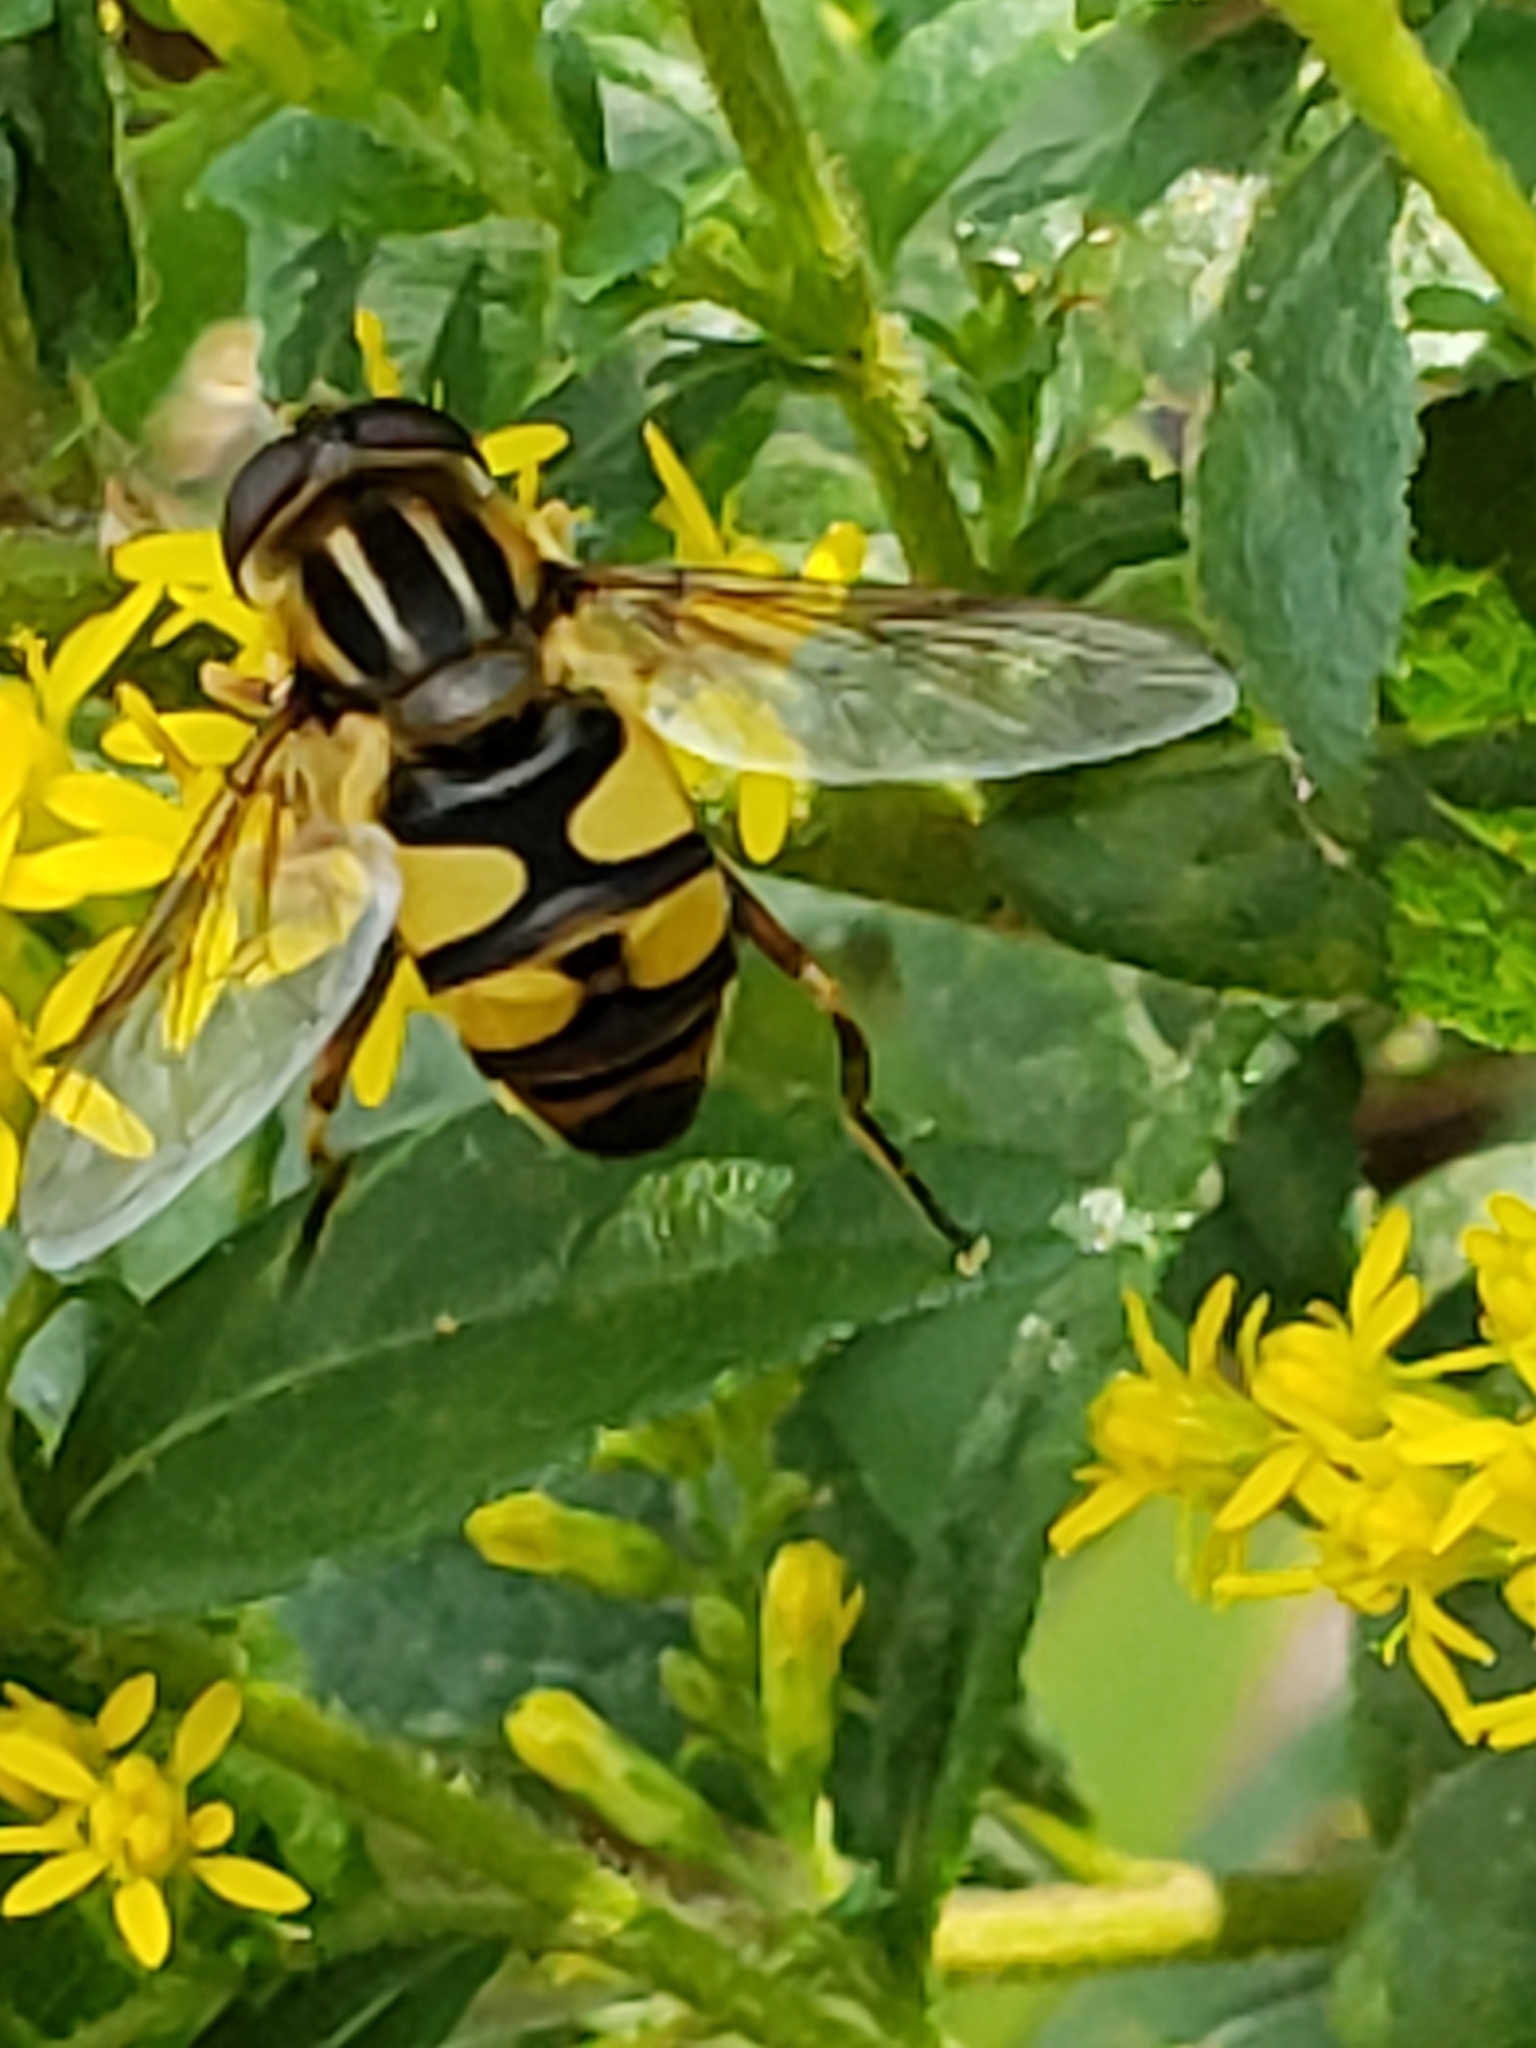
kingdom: Animalia
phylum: Arthropoda
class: Insecta
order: Diptera
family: Syrphidae
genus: Helophilus
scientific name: Helophilus fasciatus
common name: Narrow-headed marsh fly
